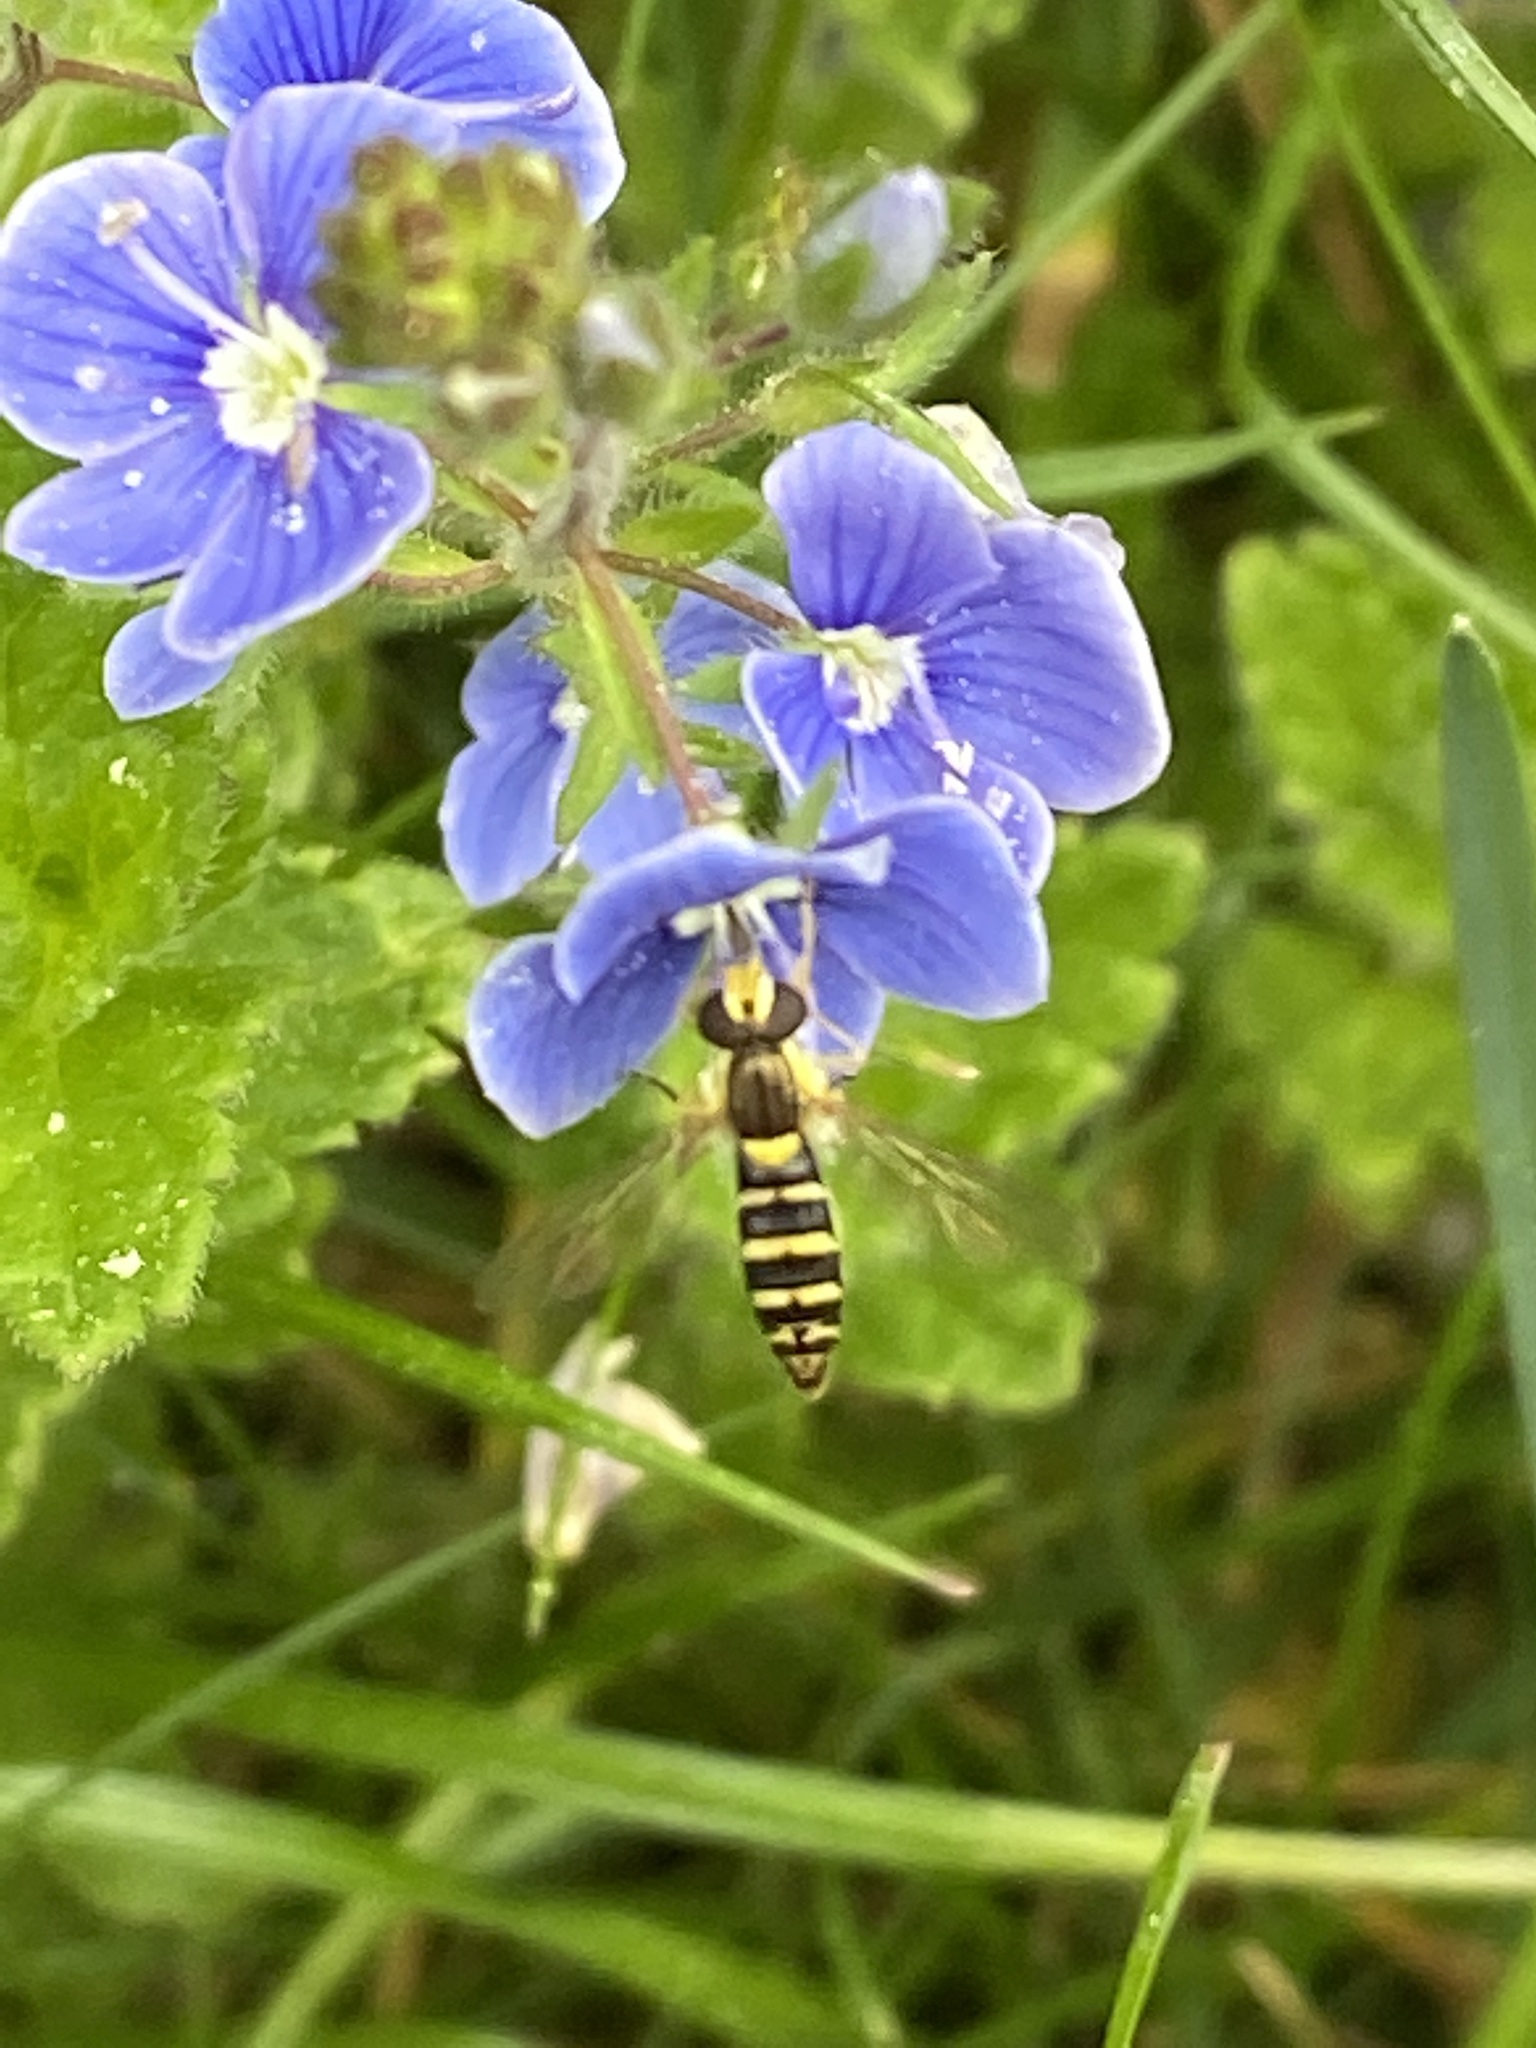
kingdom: Animalia
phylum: Arthropoda
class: Insecta
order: Diptera
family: Syrphidae
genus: Sphaerophoria
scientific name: Sphaerophoria
